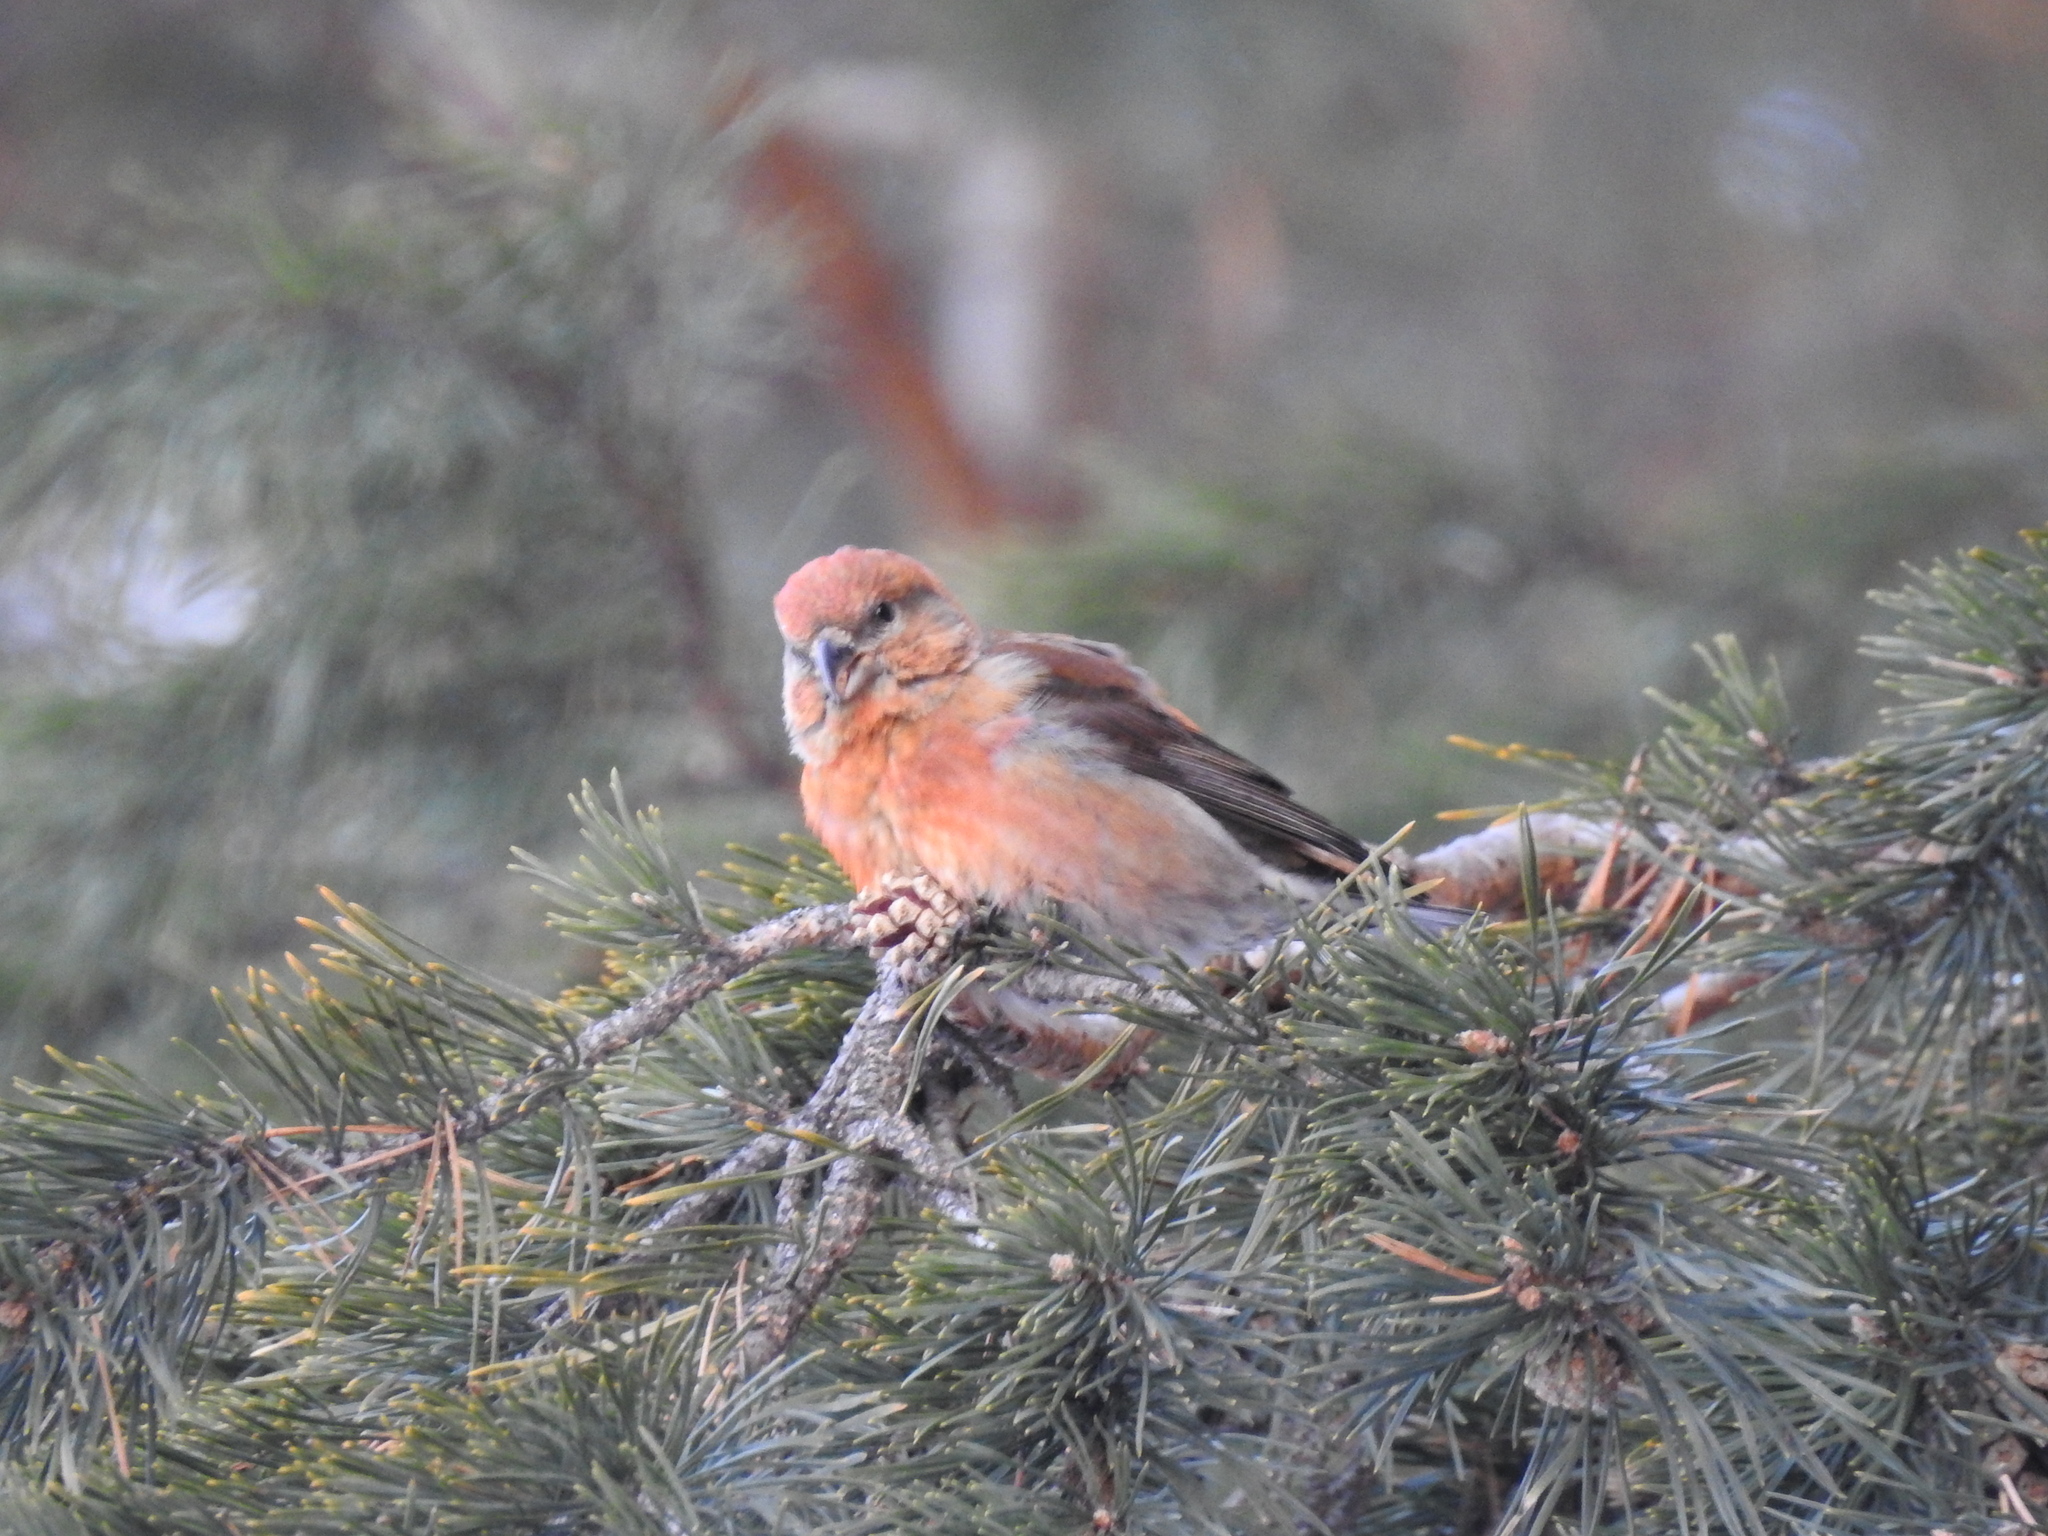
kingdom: Animalia
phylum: Chordata
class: Aves
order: Passeriformes
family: Fringillidae
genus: Loxia
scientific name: Loxia curvirostra
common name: Red crossbill
